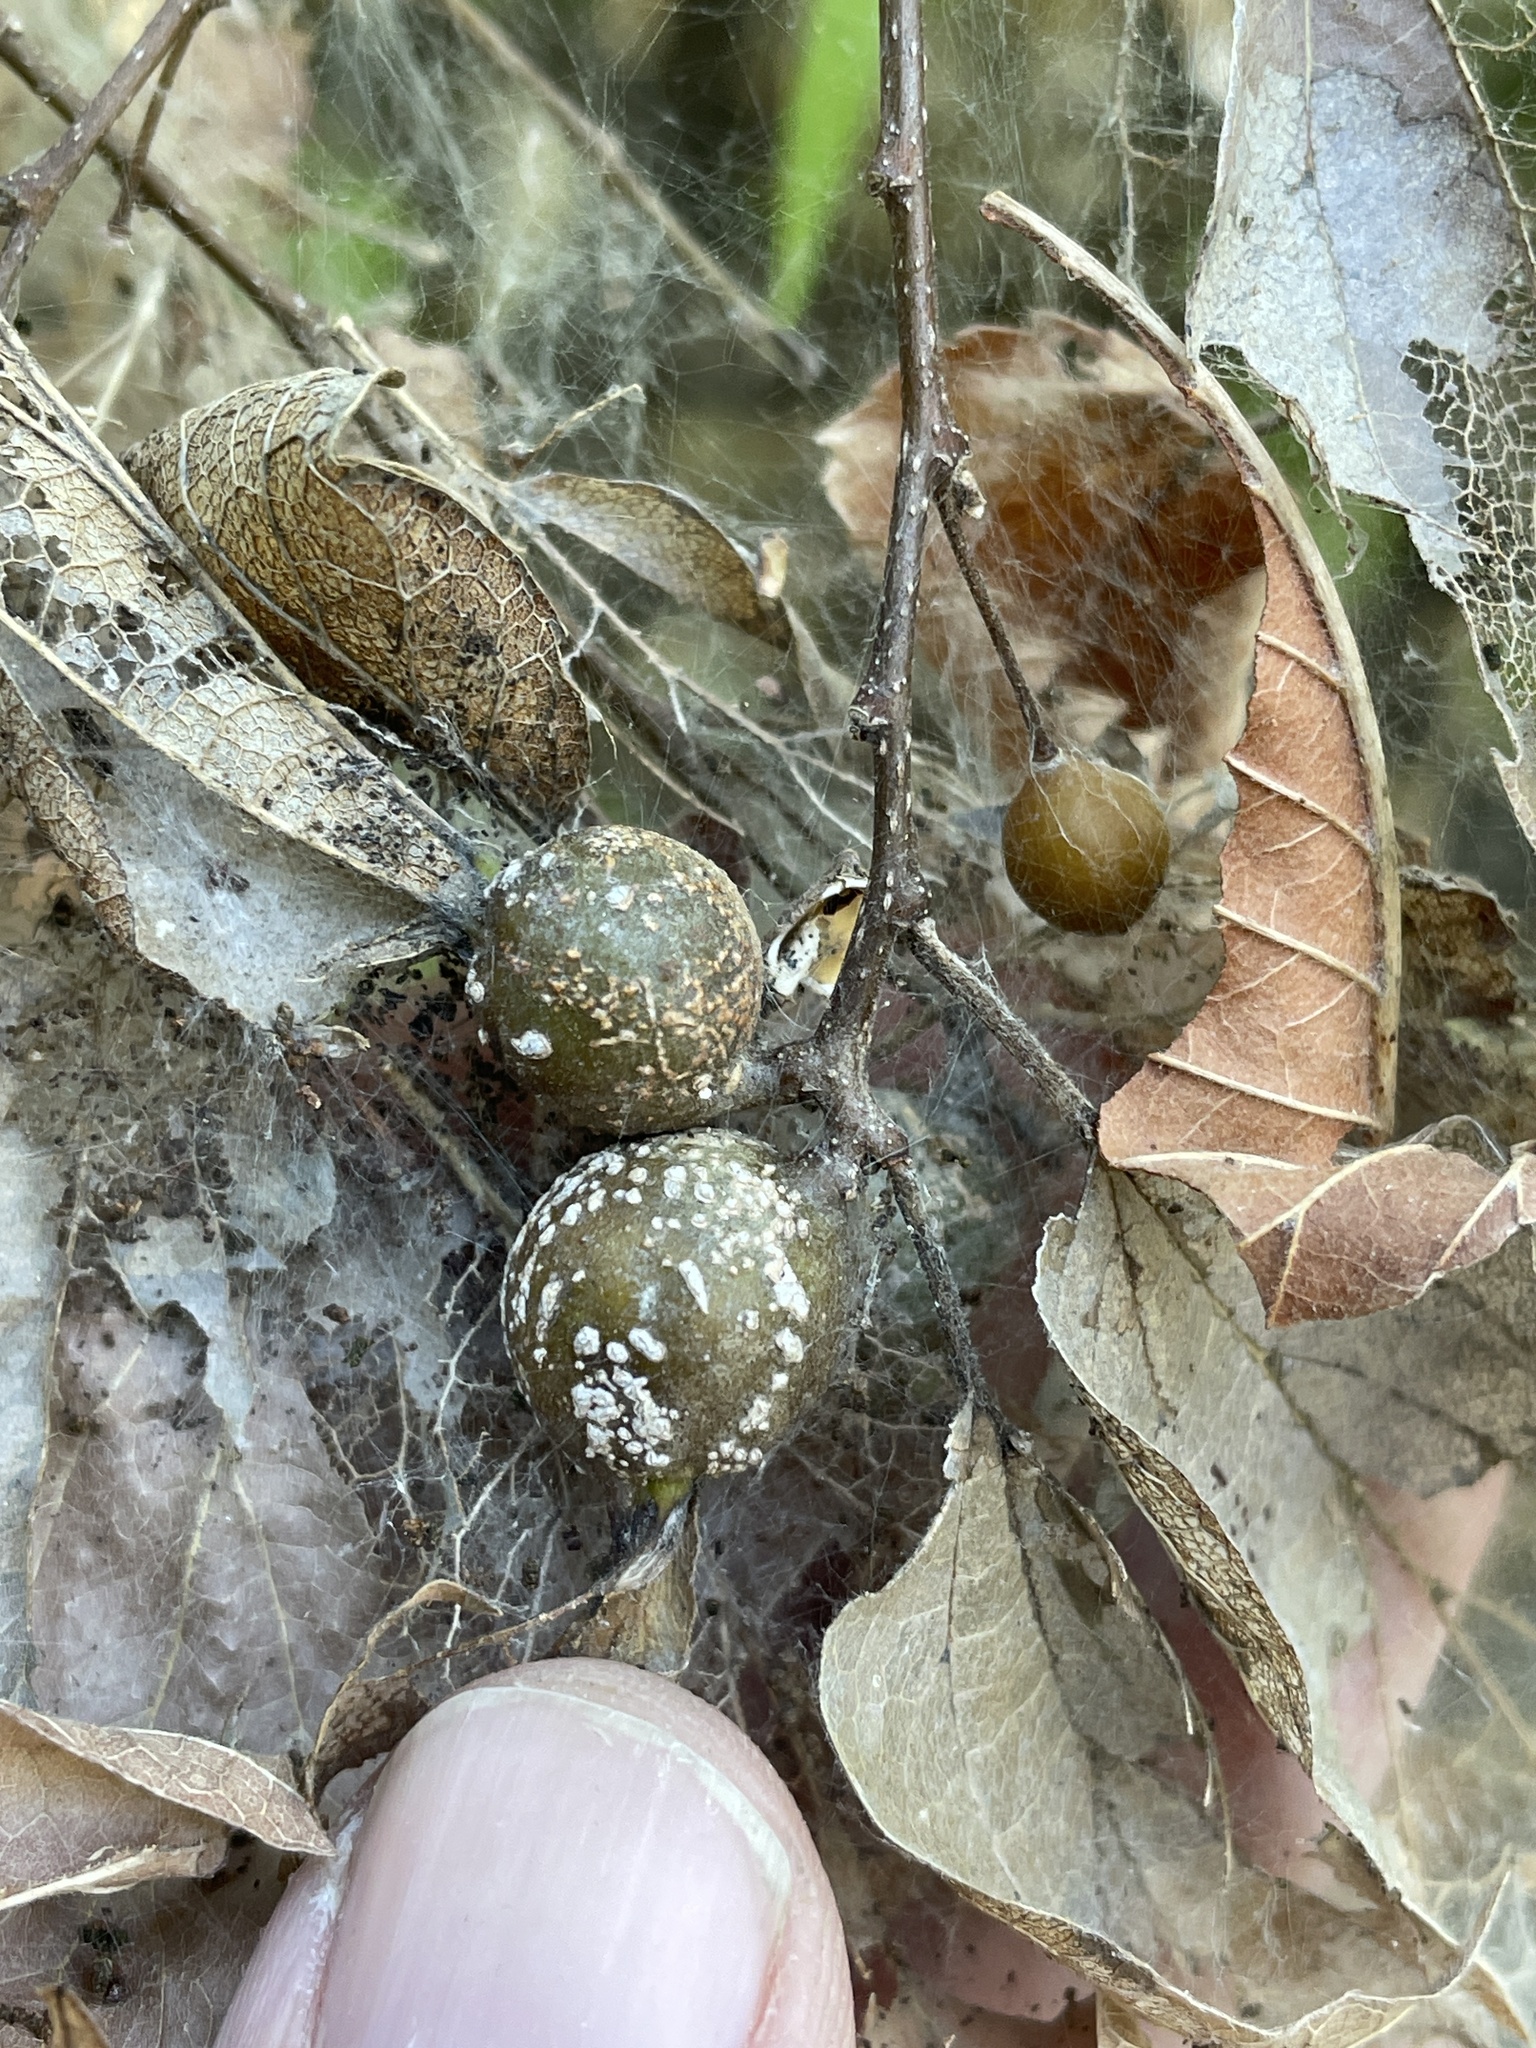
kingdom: Animalia
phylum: Arthropoda
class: Insecta
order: Hemiptera
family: Aphalaridae
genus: Pachypsylla
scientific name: Pachypsylla venusta
